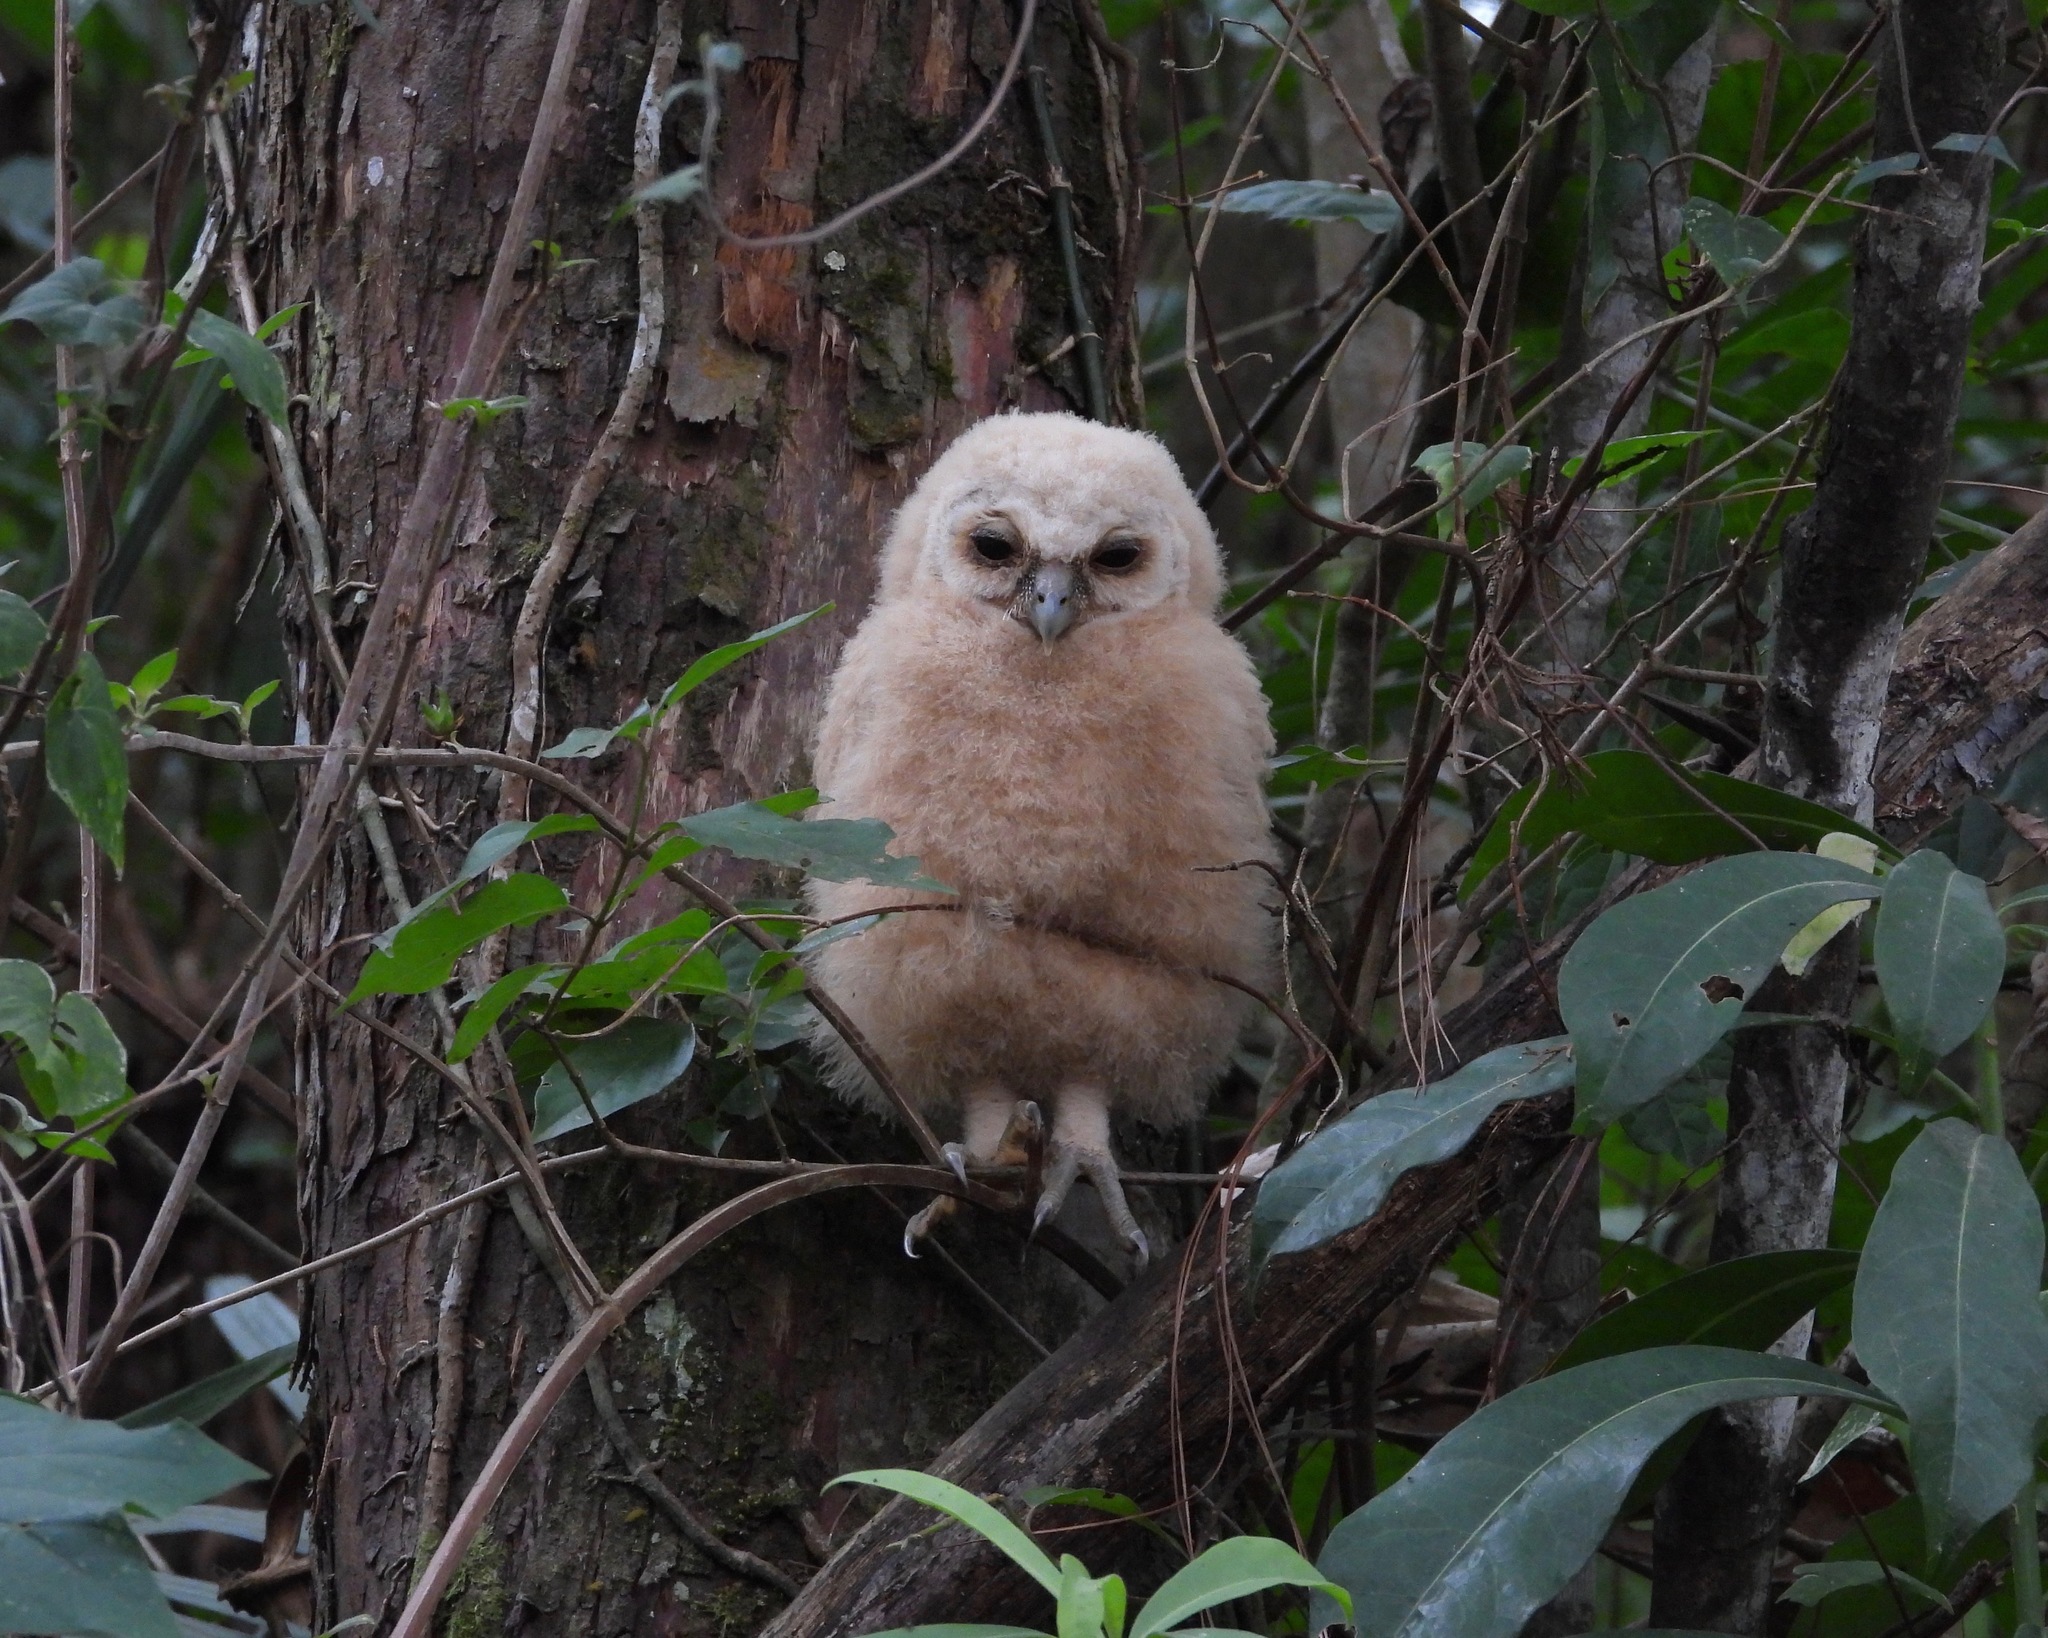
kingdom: Animalia
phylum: Chordata
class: Aves
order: Strigiformes
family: Strigidae
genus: Strix
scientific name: Strix virgata
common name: Mottled owl
